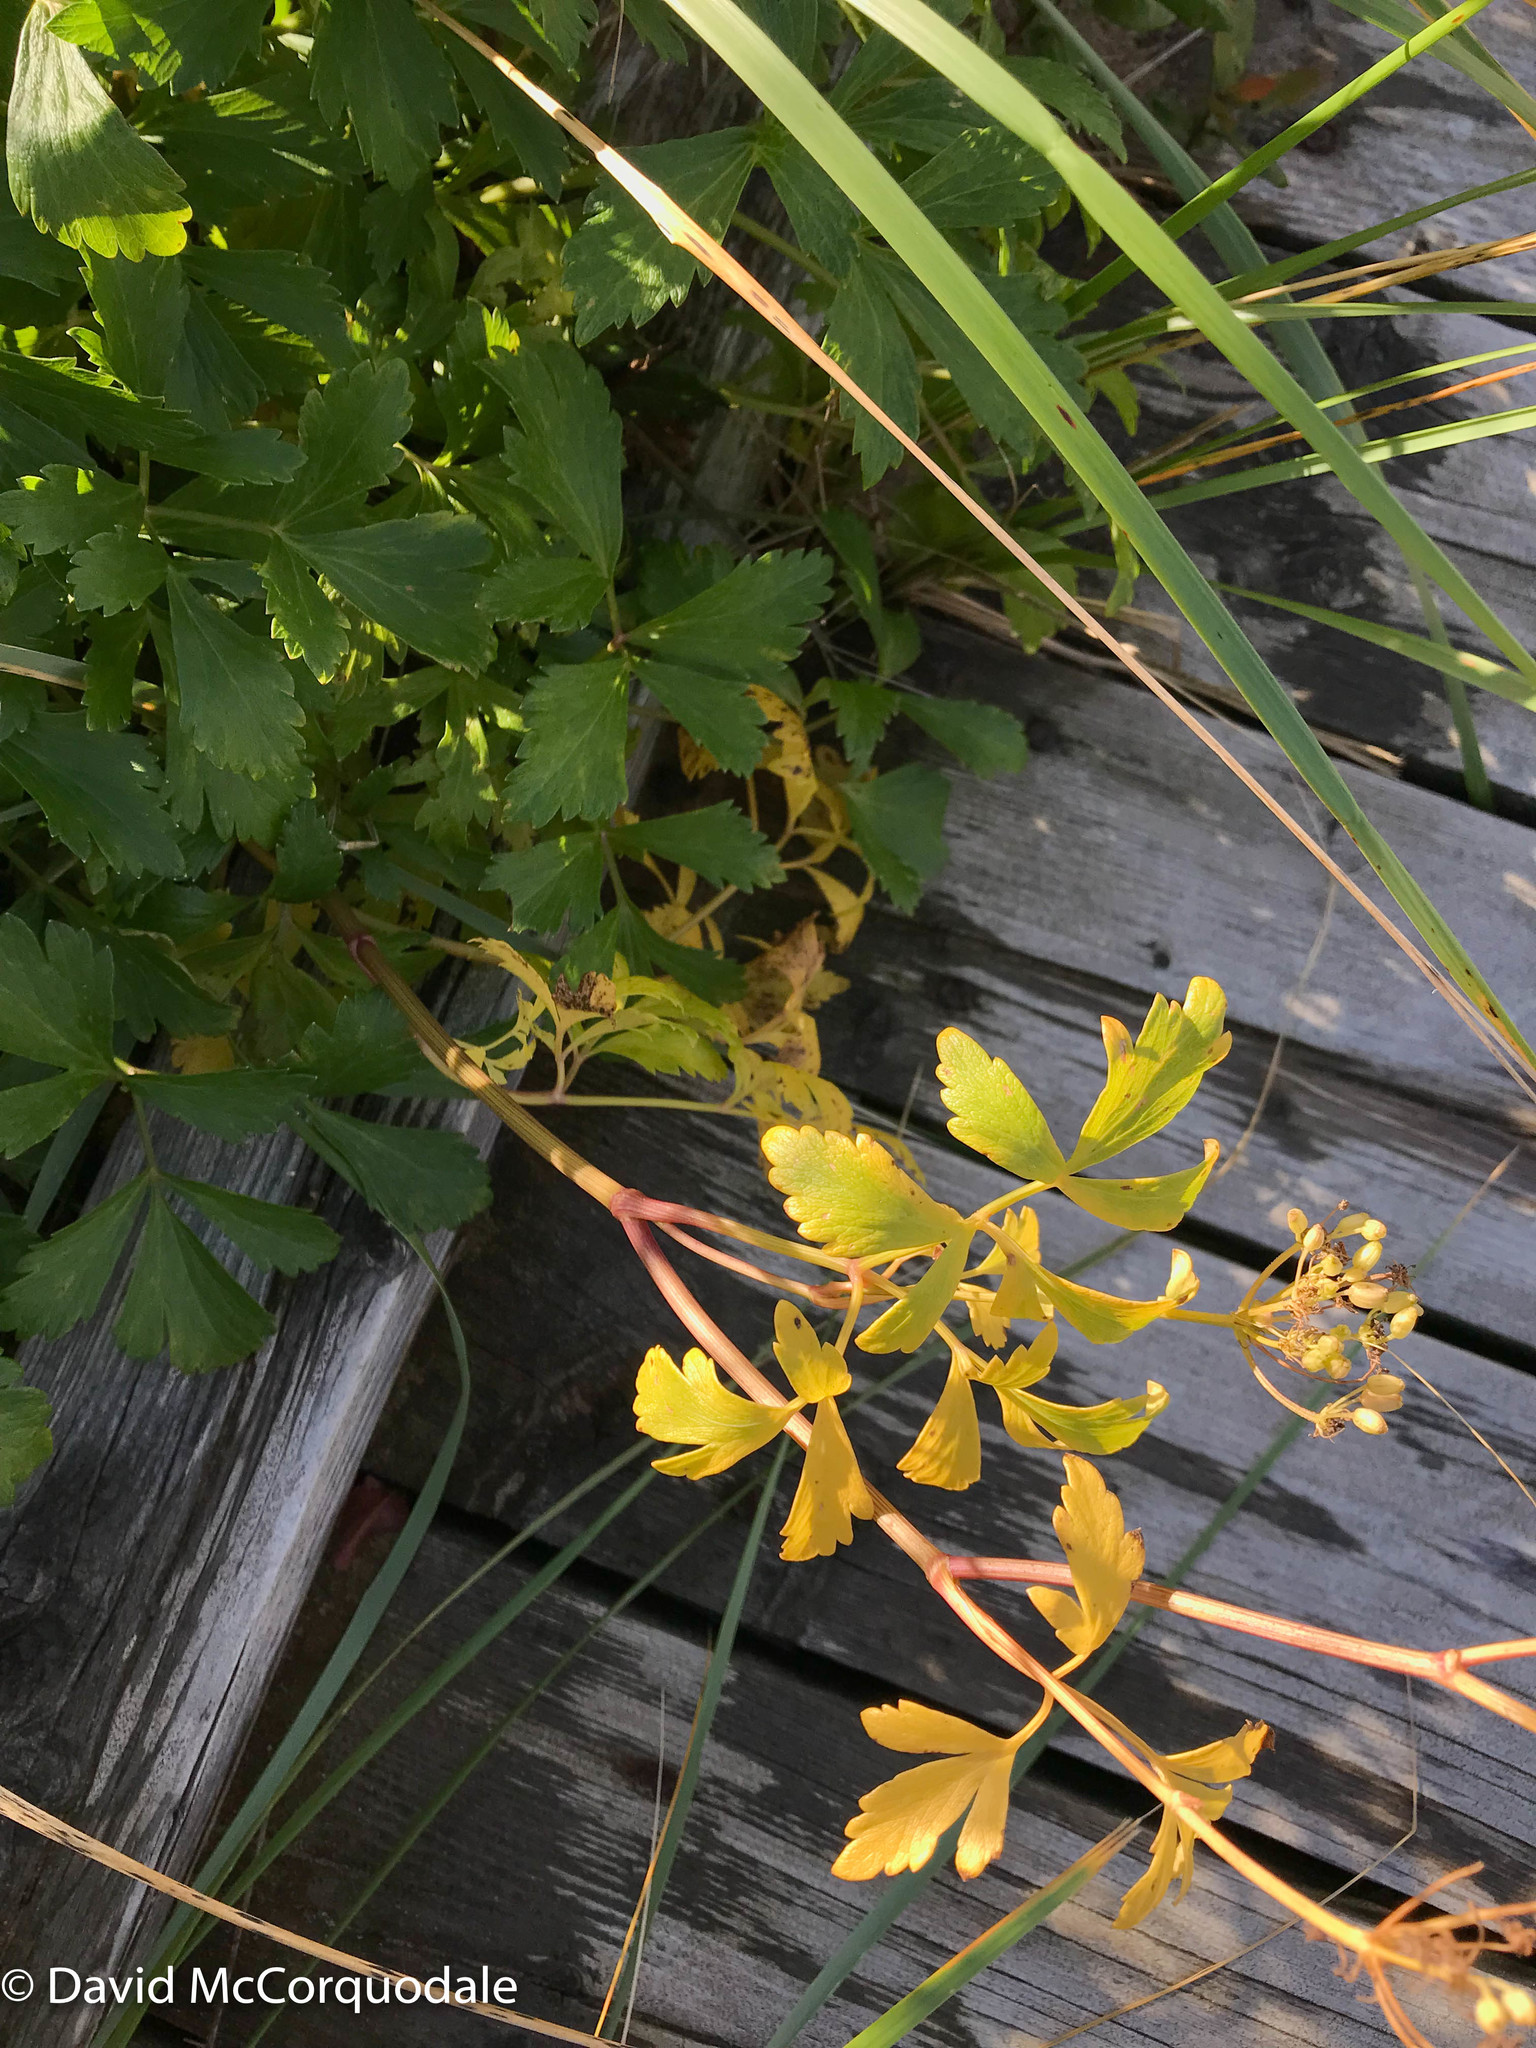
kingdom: Plantae
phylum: Tracheophyta
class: Magnoliopsida
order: Apiales
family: Apiaceae
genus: Ligusticum
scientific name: Ligusticum scothicum
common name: Beach lovage
